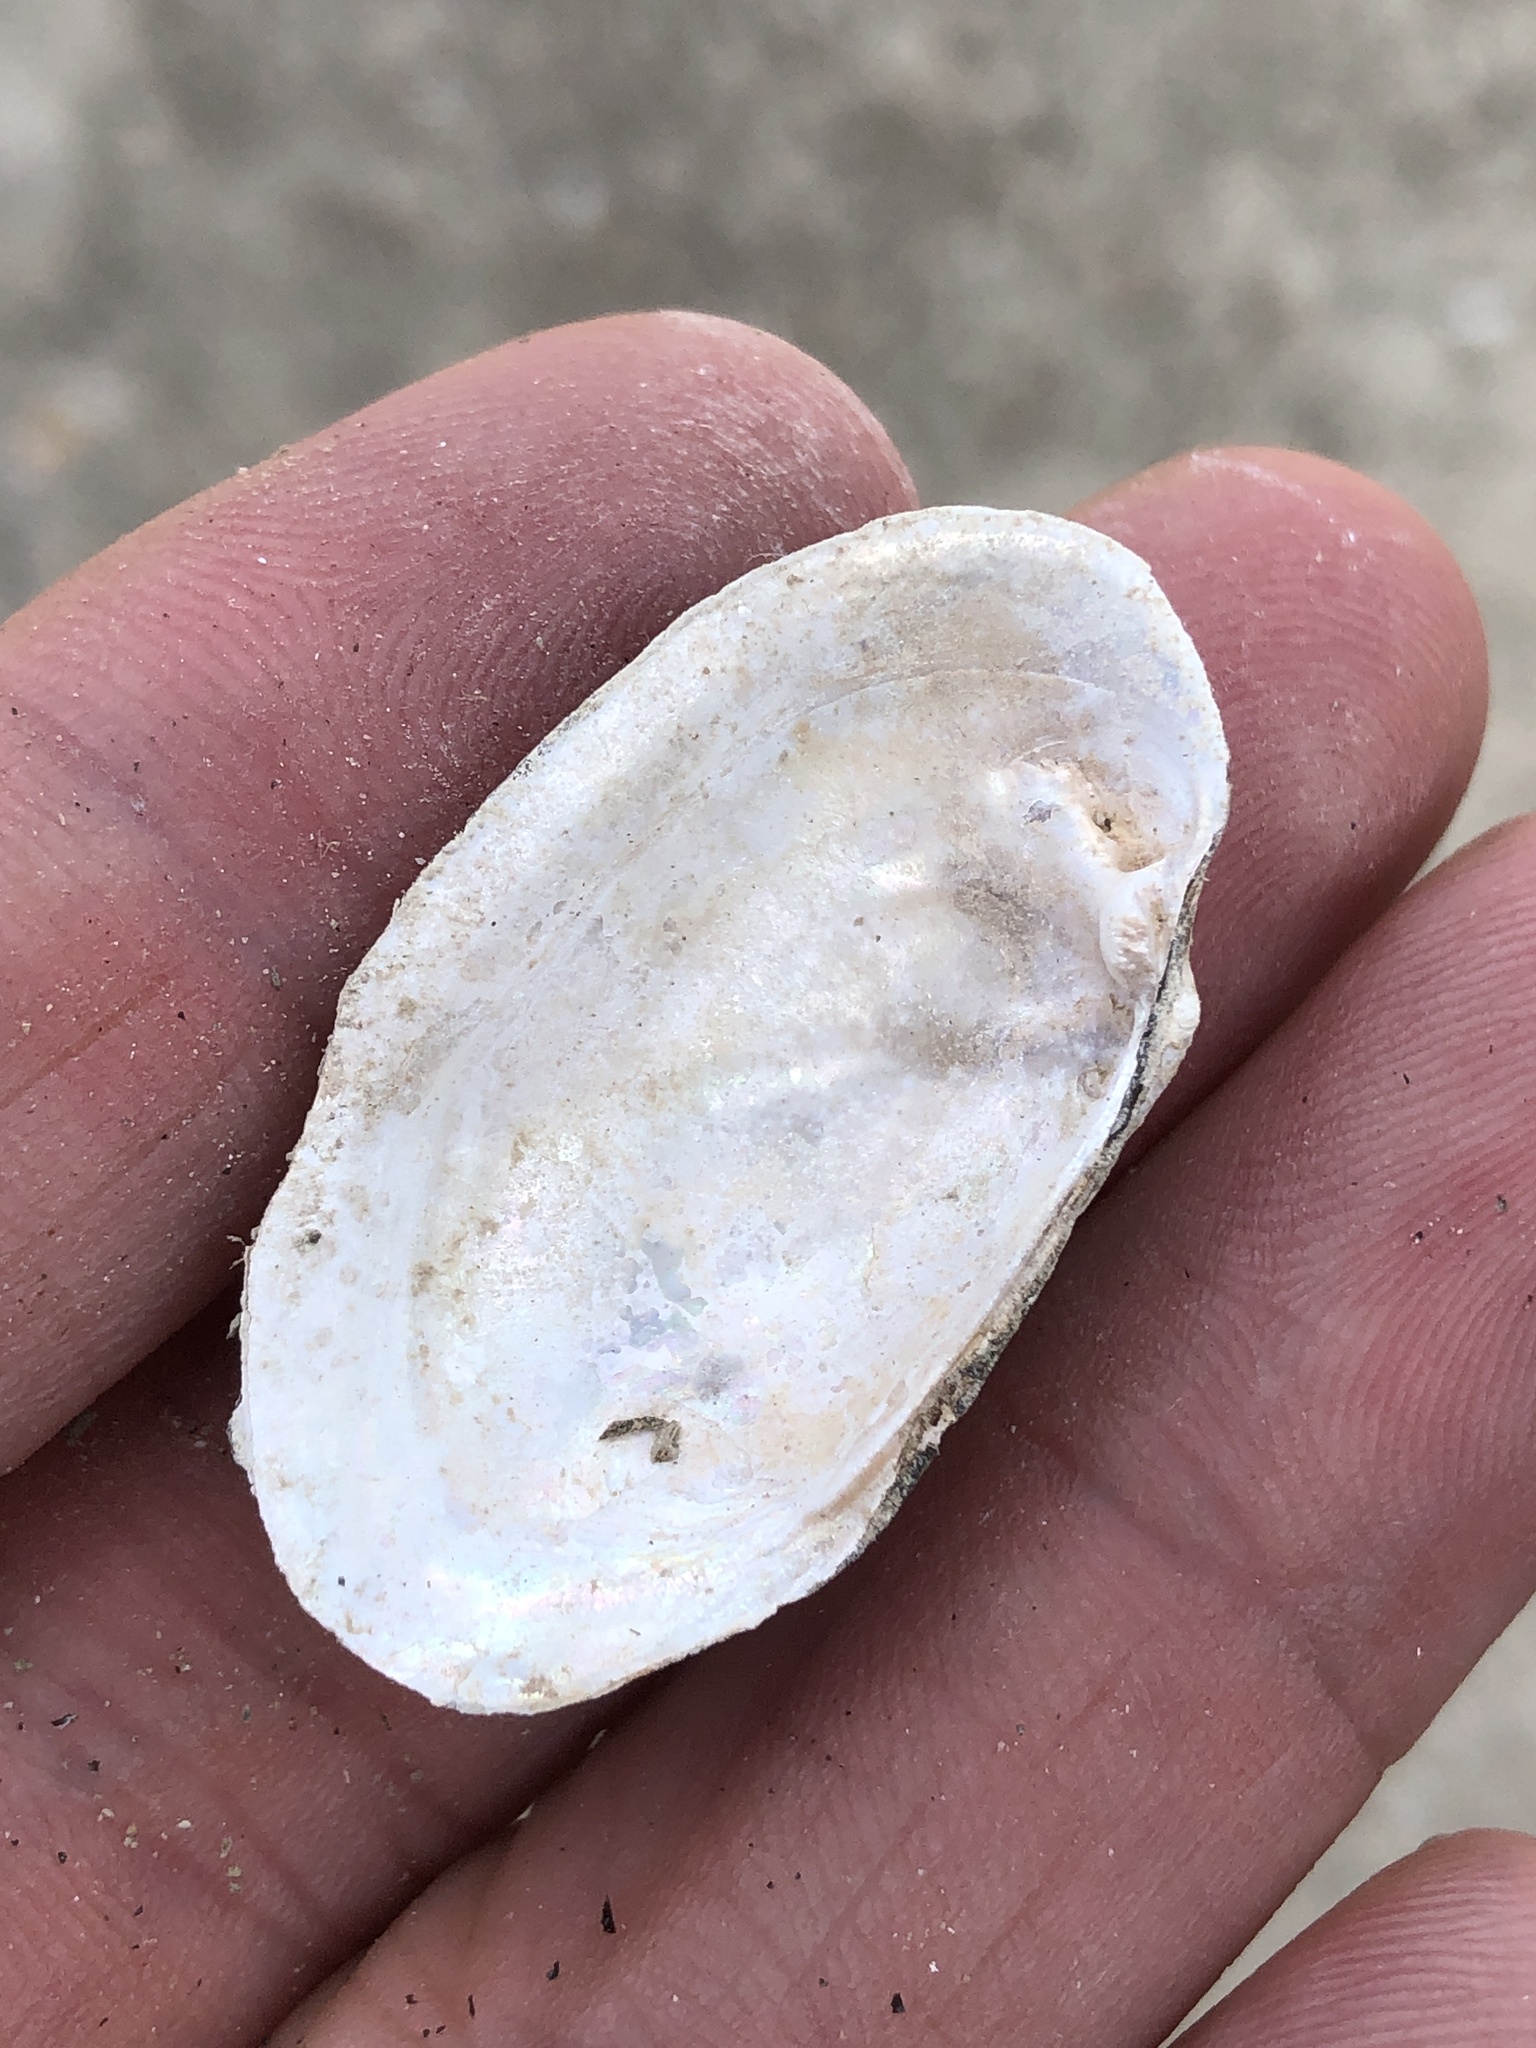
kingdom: Animalia
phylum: Mollusca
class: Bivalvia
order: Unionida
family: Unionidae
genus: Toxolasma
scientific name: Toxolasma texasiense
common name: Texas lilliput
